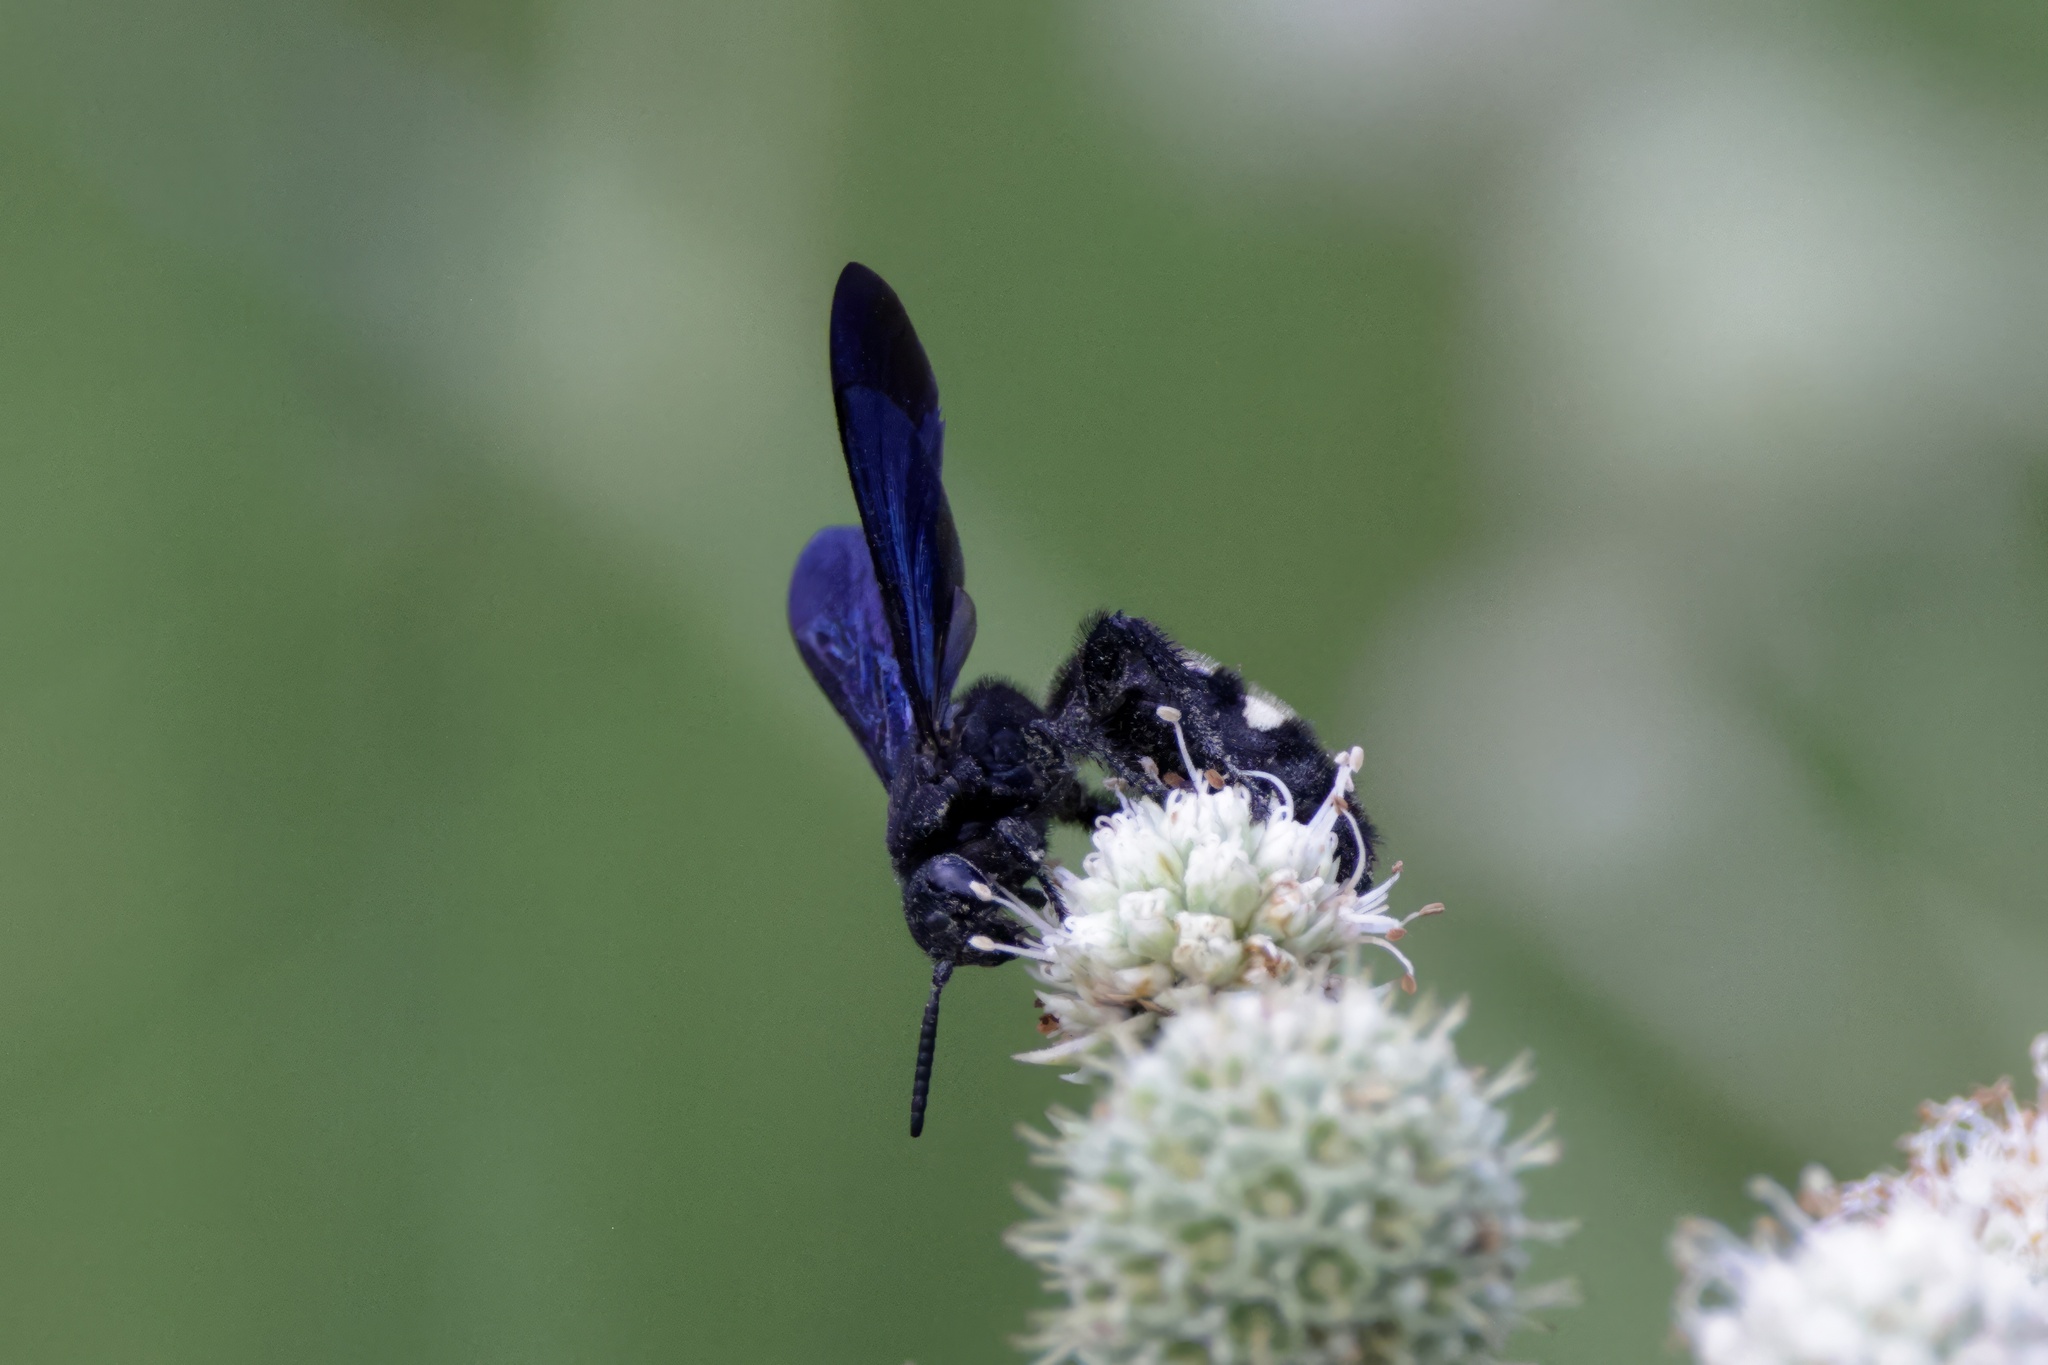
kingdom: Animalia
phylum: Arthropoda
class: Insecta
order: Hymenoptera
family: Scoliidae
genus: Scolia
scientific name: Scolia bicincta
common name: Double-banded scoliid wasp
